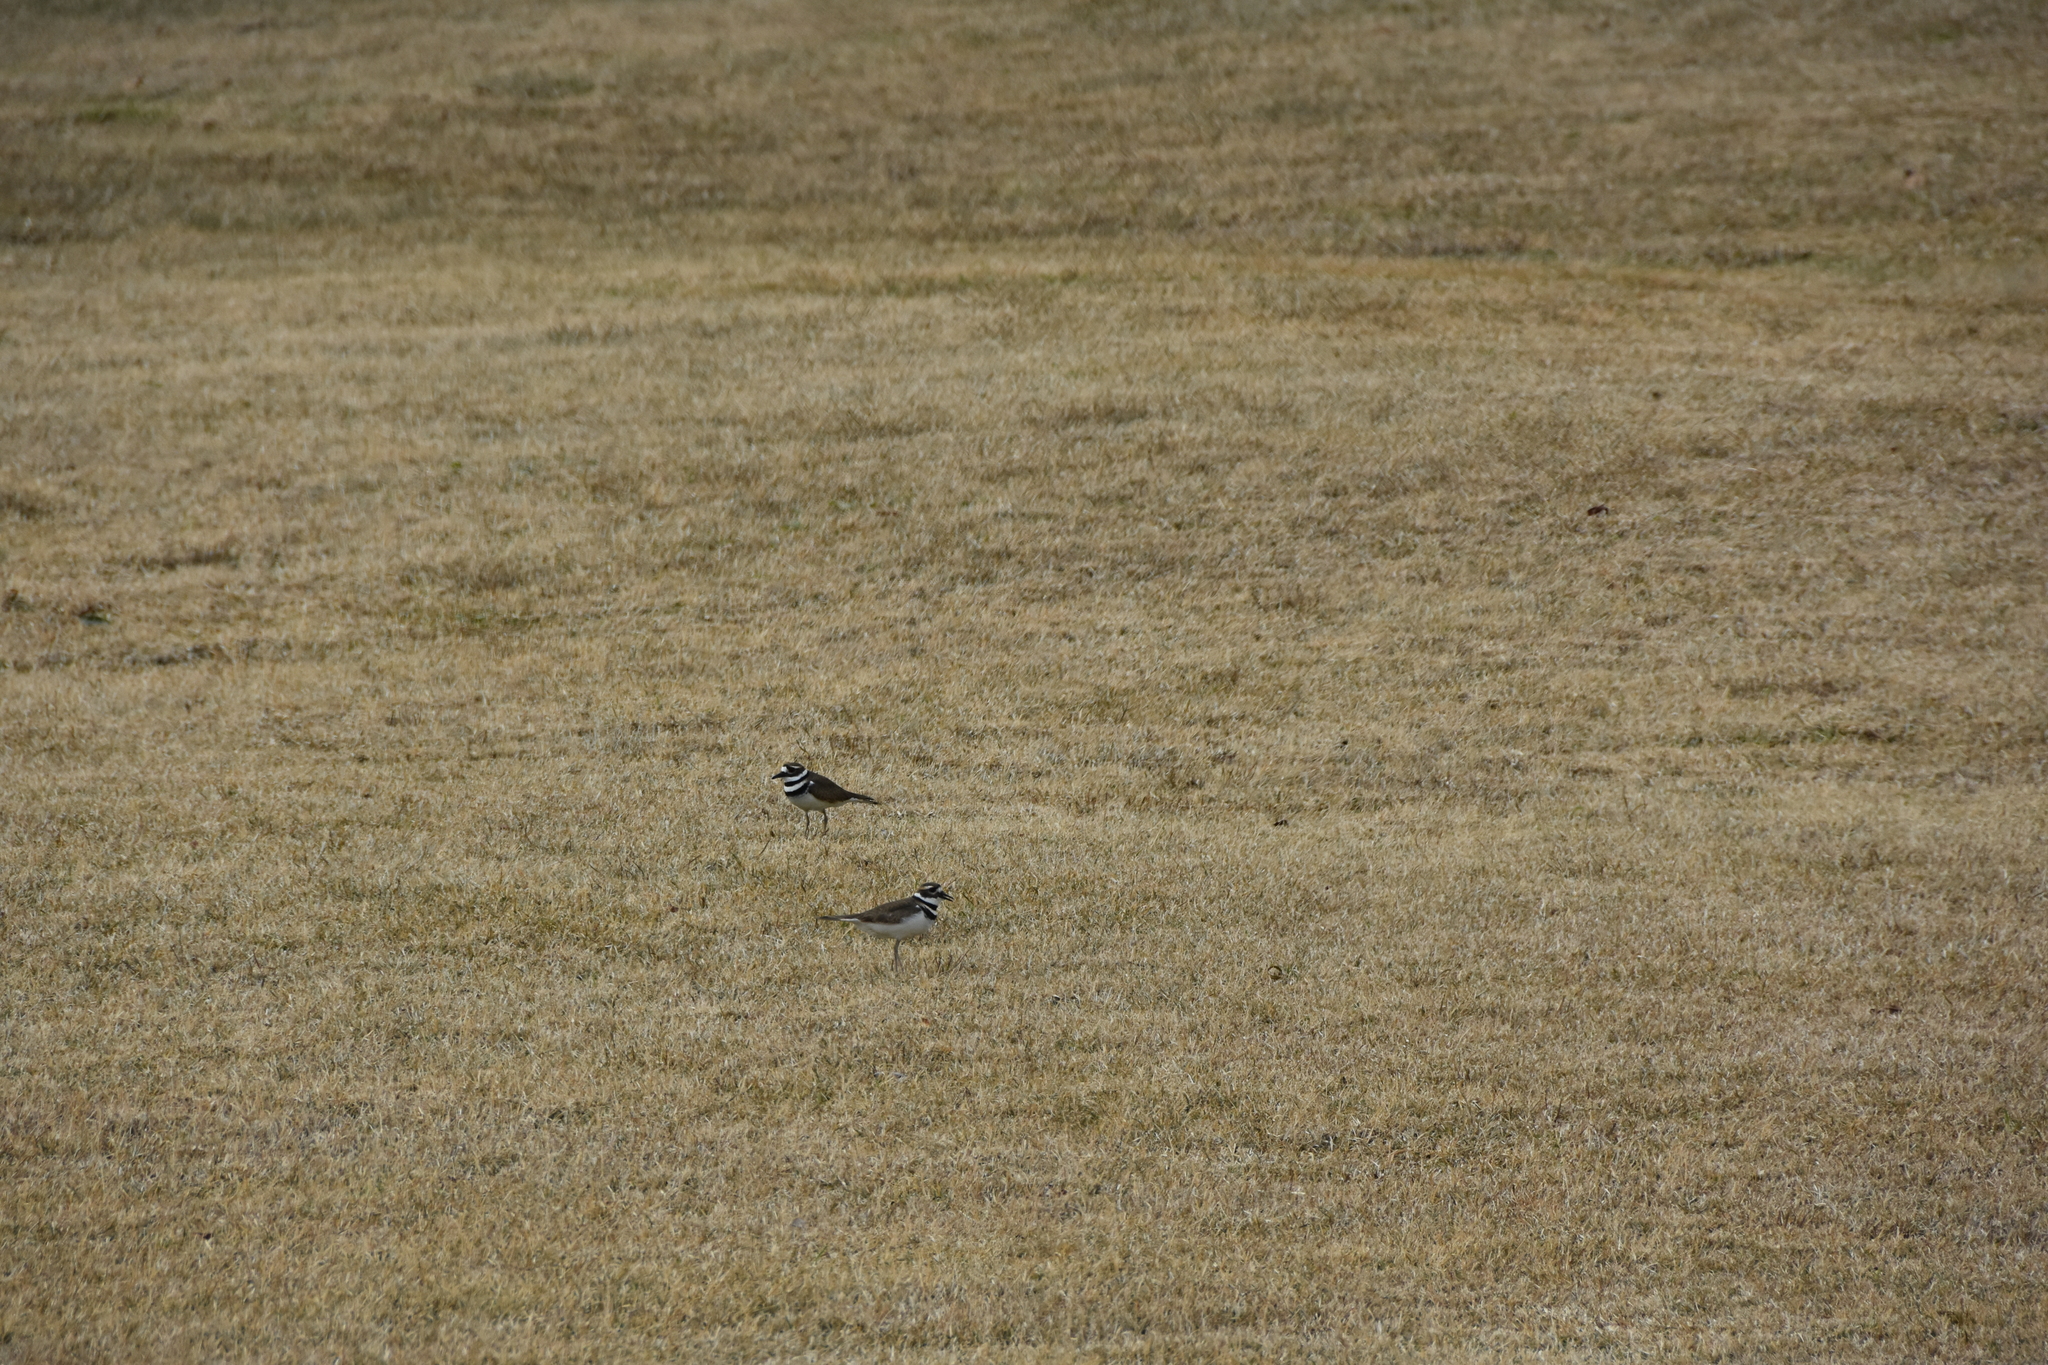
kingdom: Animalia
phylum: Chordata
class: Aves
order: Charadriiformes
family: Charadriidae
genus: Charadrius
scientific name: Charadrius vociferus
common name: Killdeer
